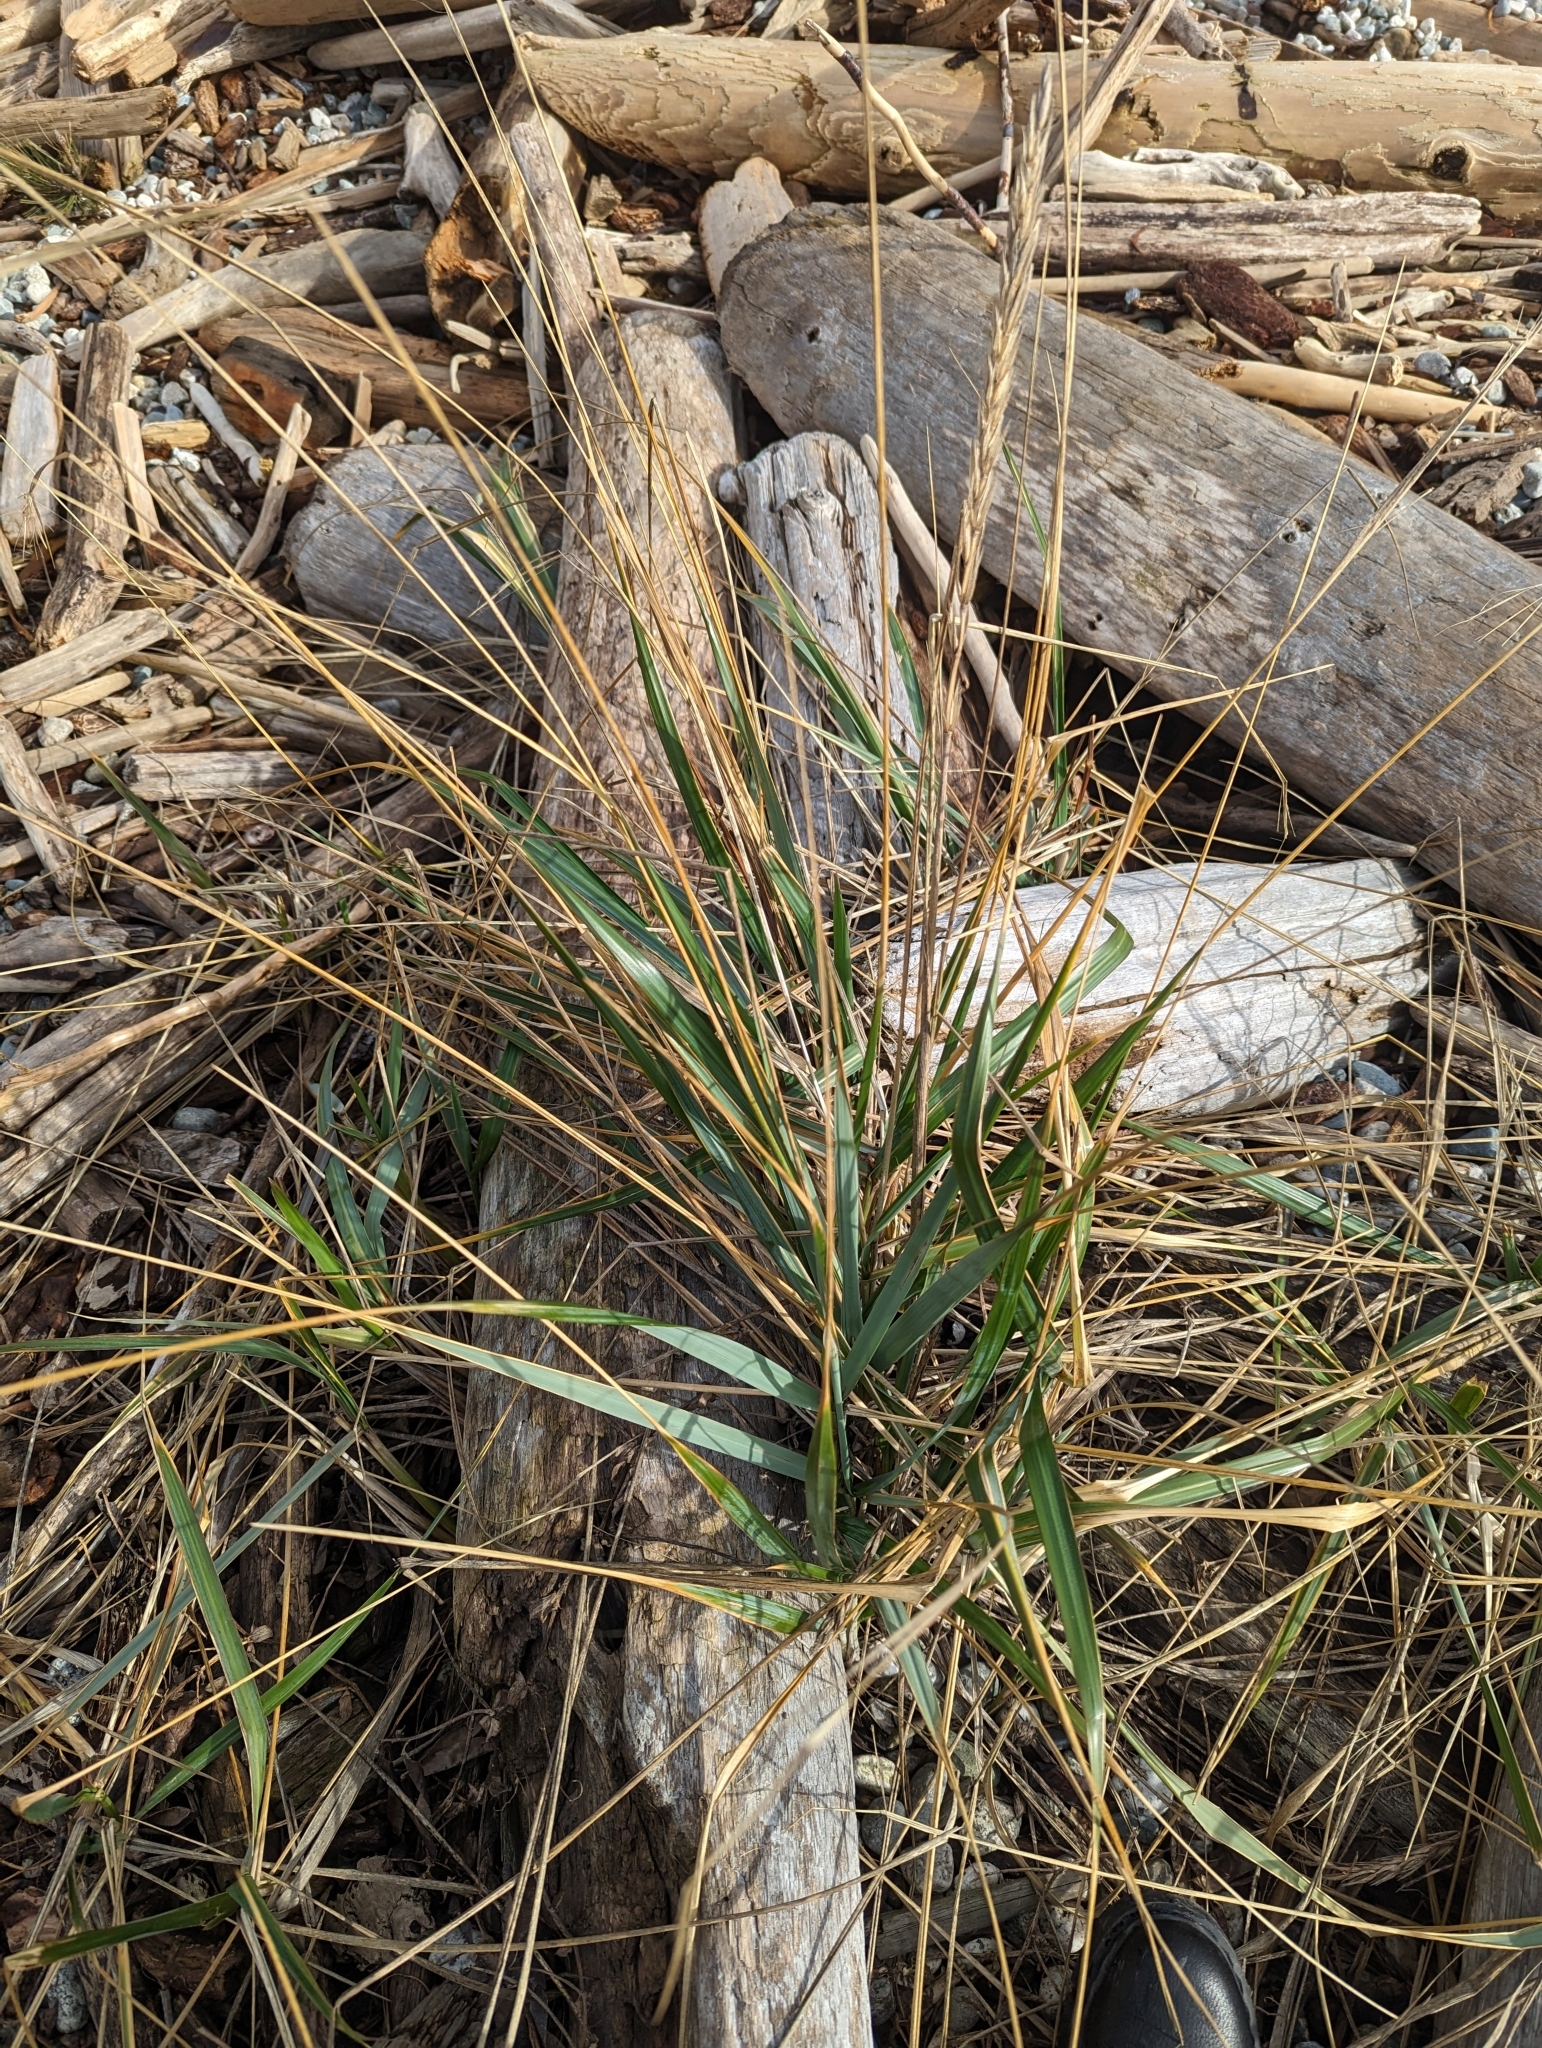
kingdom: Plantae
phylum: Tracheophyta
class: Liliopsida
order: Poales
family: Poaceae
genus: Leymus
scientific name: Leymus mollis
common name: American dune grass
